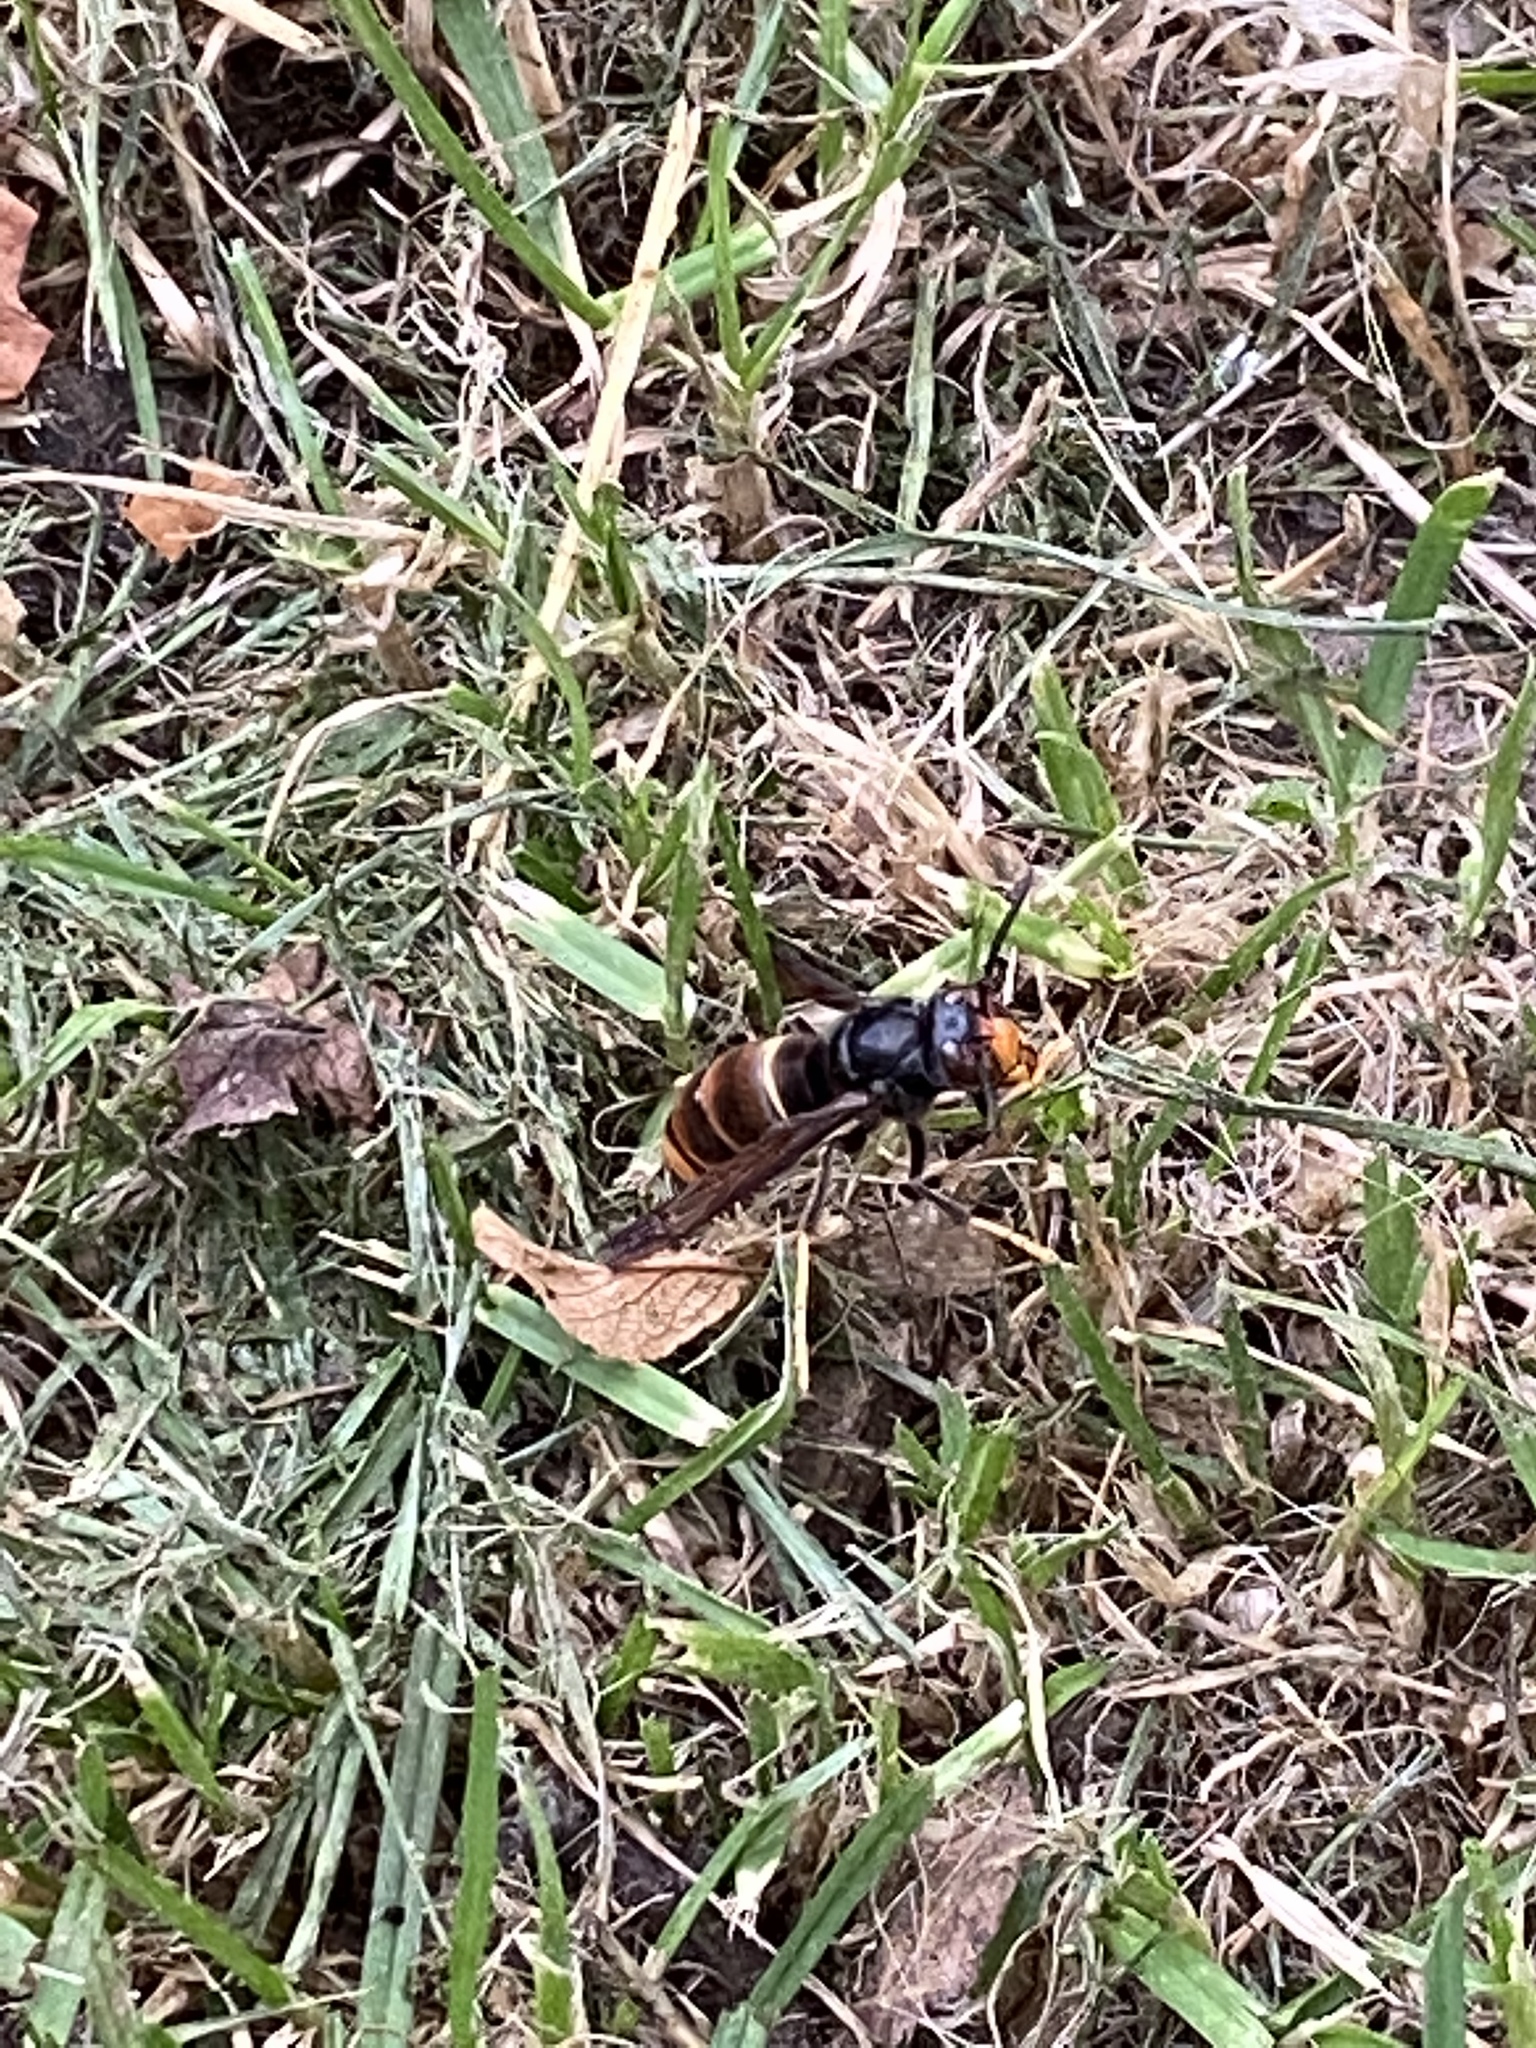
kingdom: Animalia
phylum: Arthropoda
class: Insecta
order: Hymenoptera
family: Vespidae
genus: Vespa
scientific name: Vespa velutina
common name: Asian hornet
